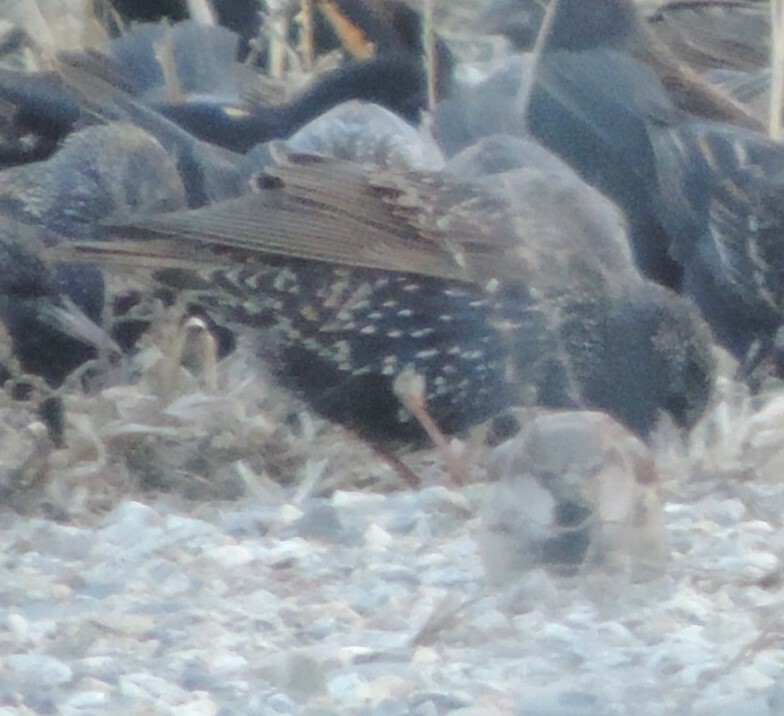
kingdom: Animalia
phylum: Chordata
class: Aves
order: Passeriformes
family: Sturnidae
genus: Sturnus
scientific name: Sturnus vulgaris
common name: Common starling
